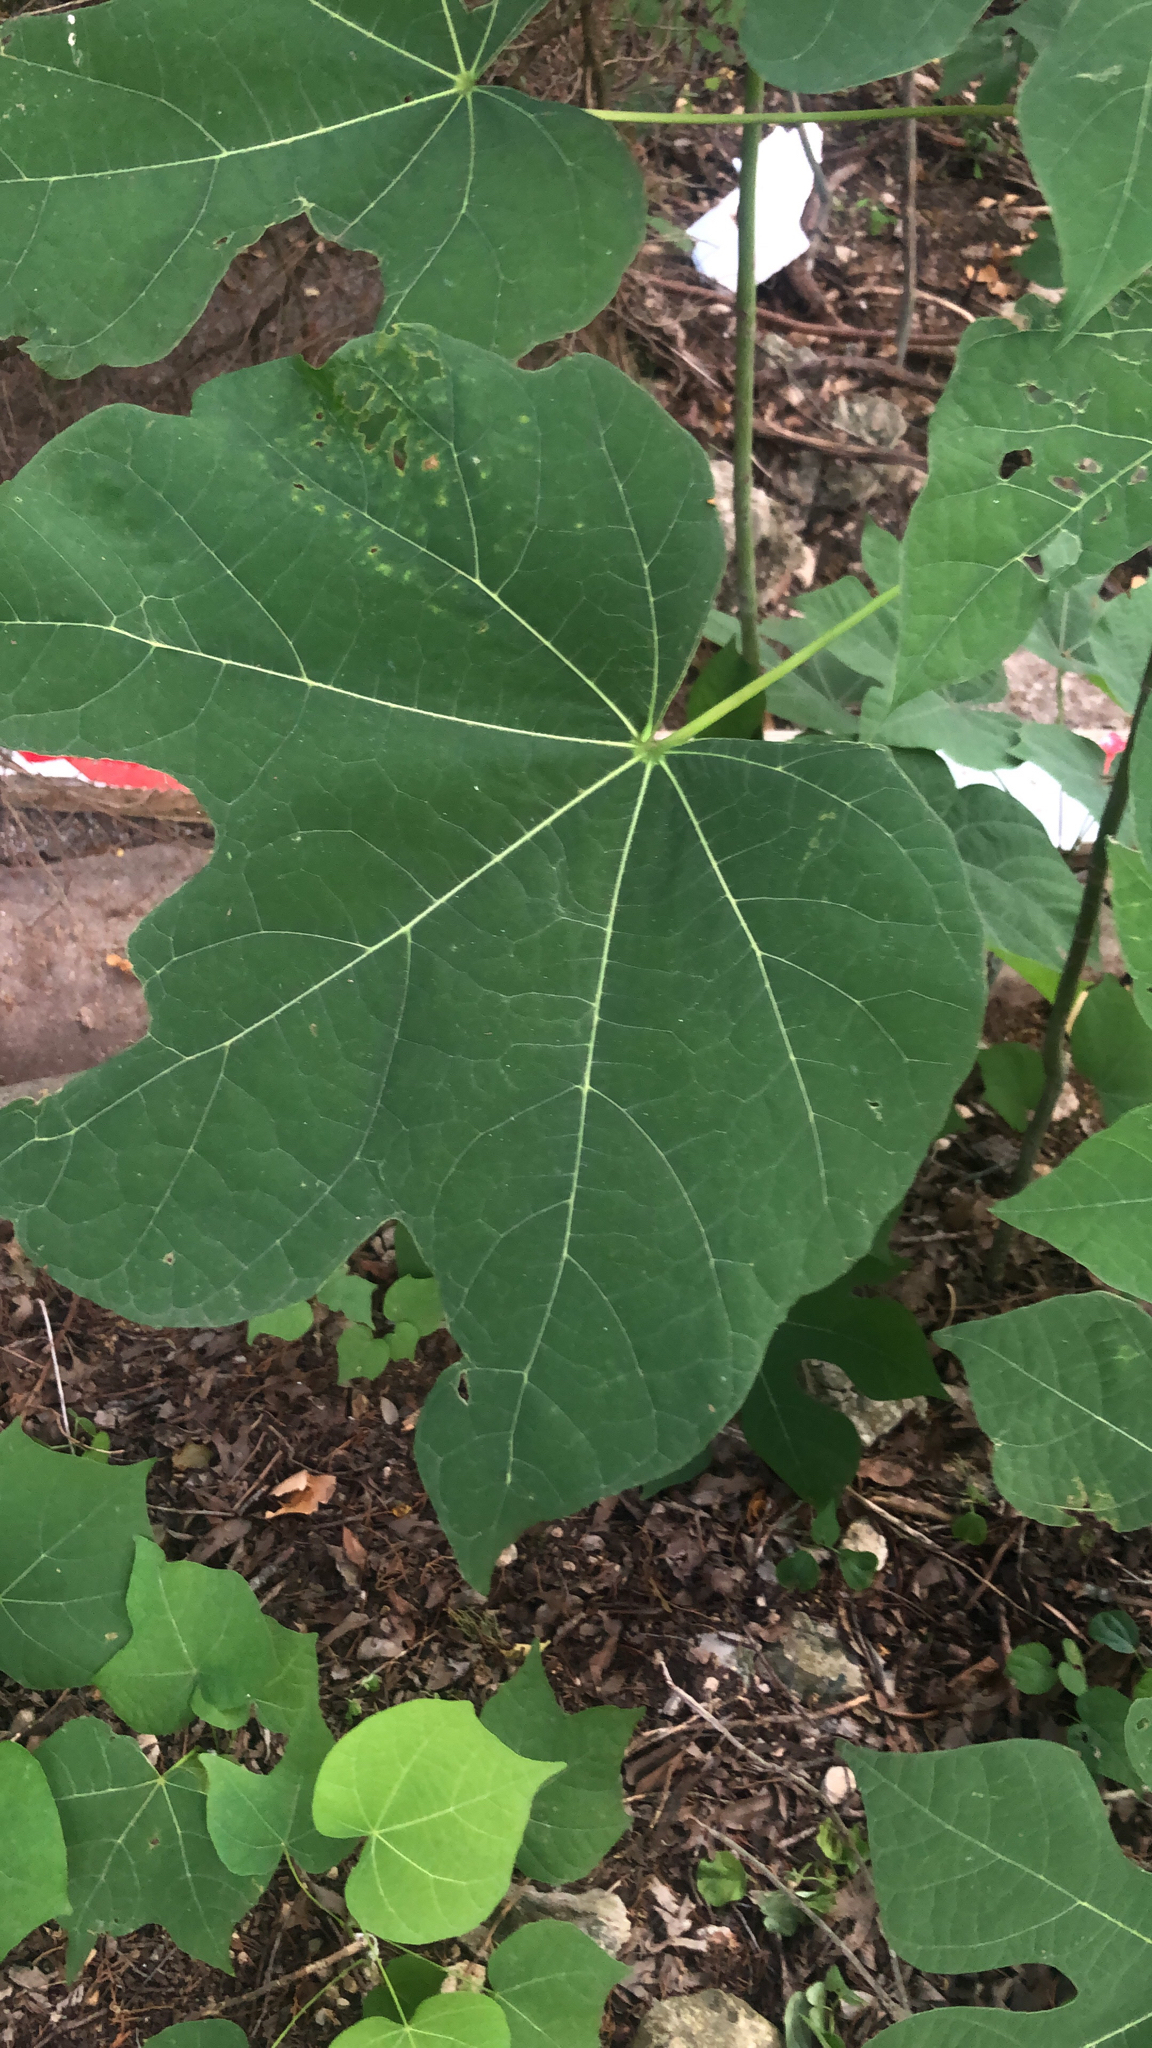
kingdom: Plantae
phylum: Tracheophyta
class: Magnoliopsida
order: Malvales
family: Malvaceae
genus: Firmiana
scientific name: Firmiana simplex
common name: Chinese parasoltree
